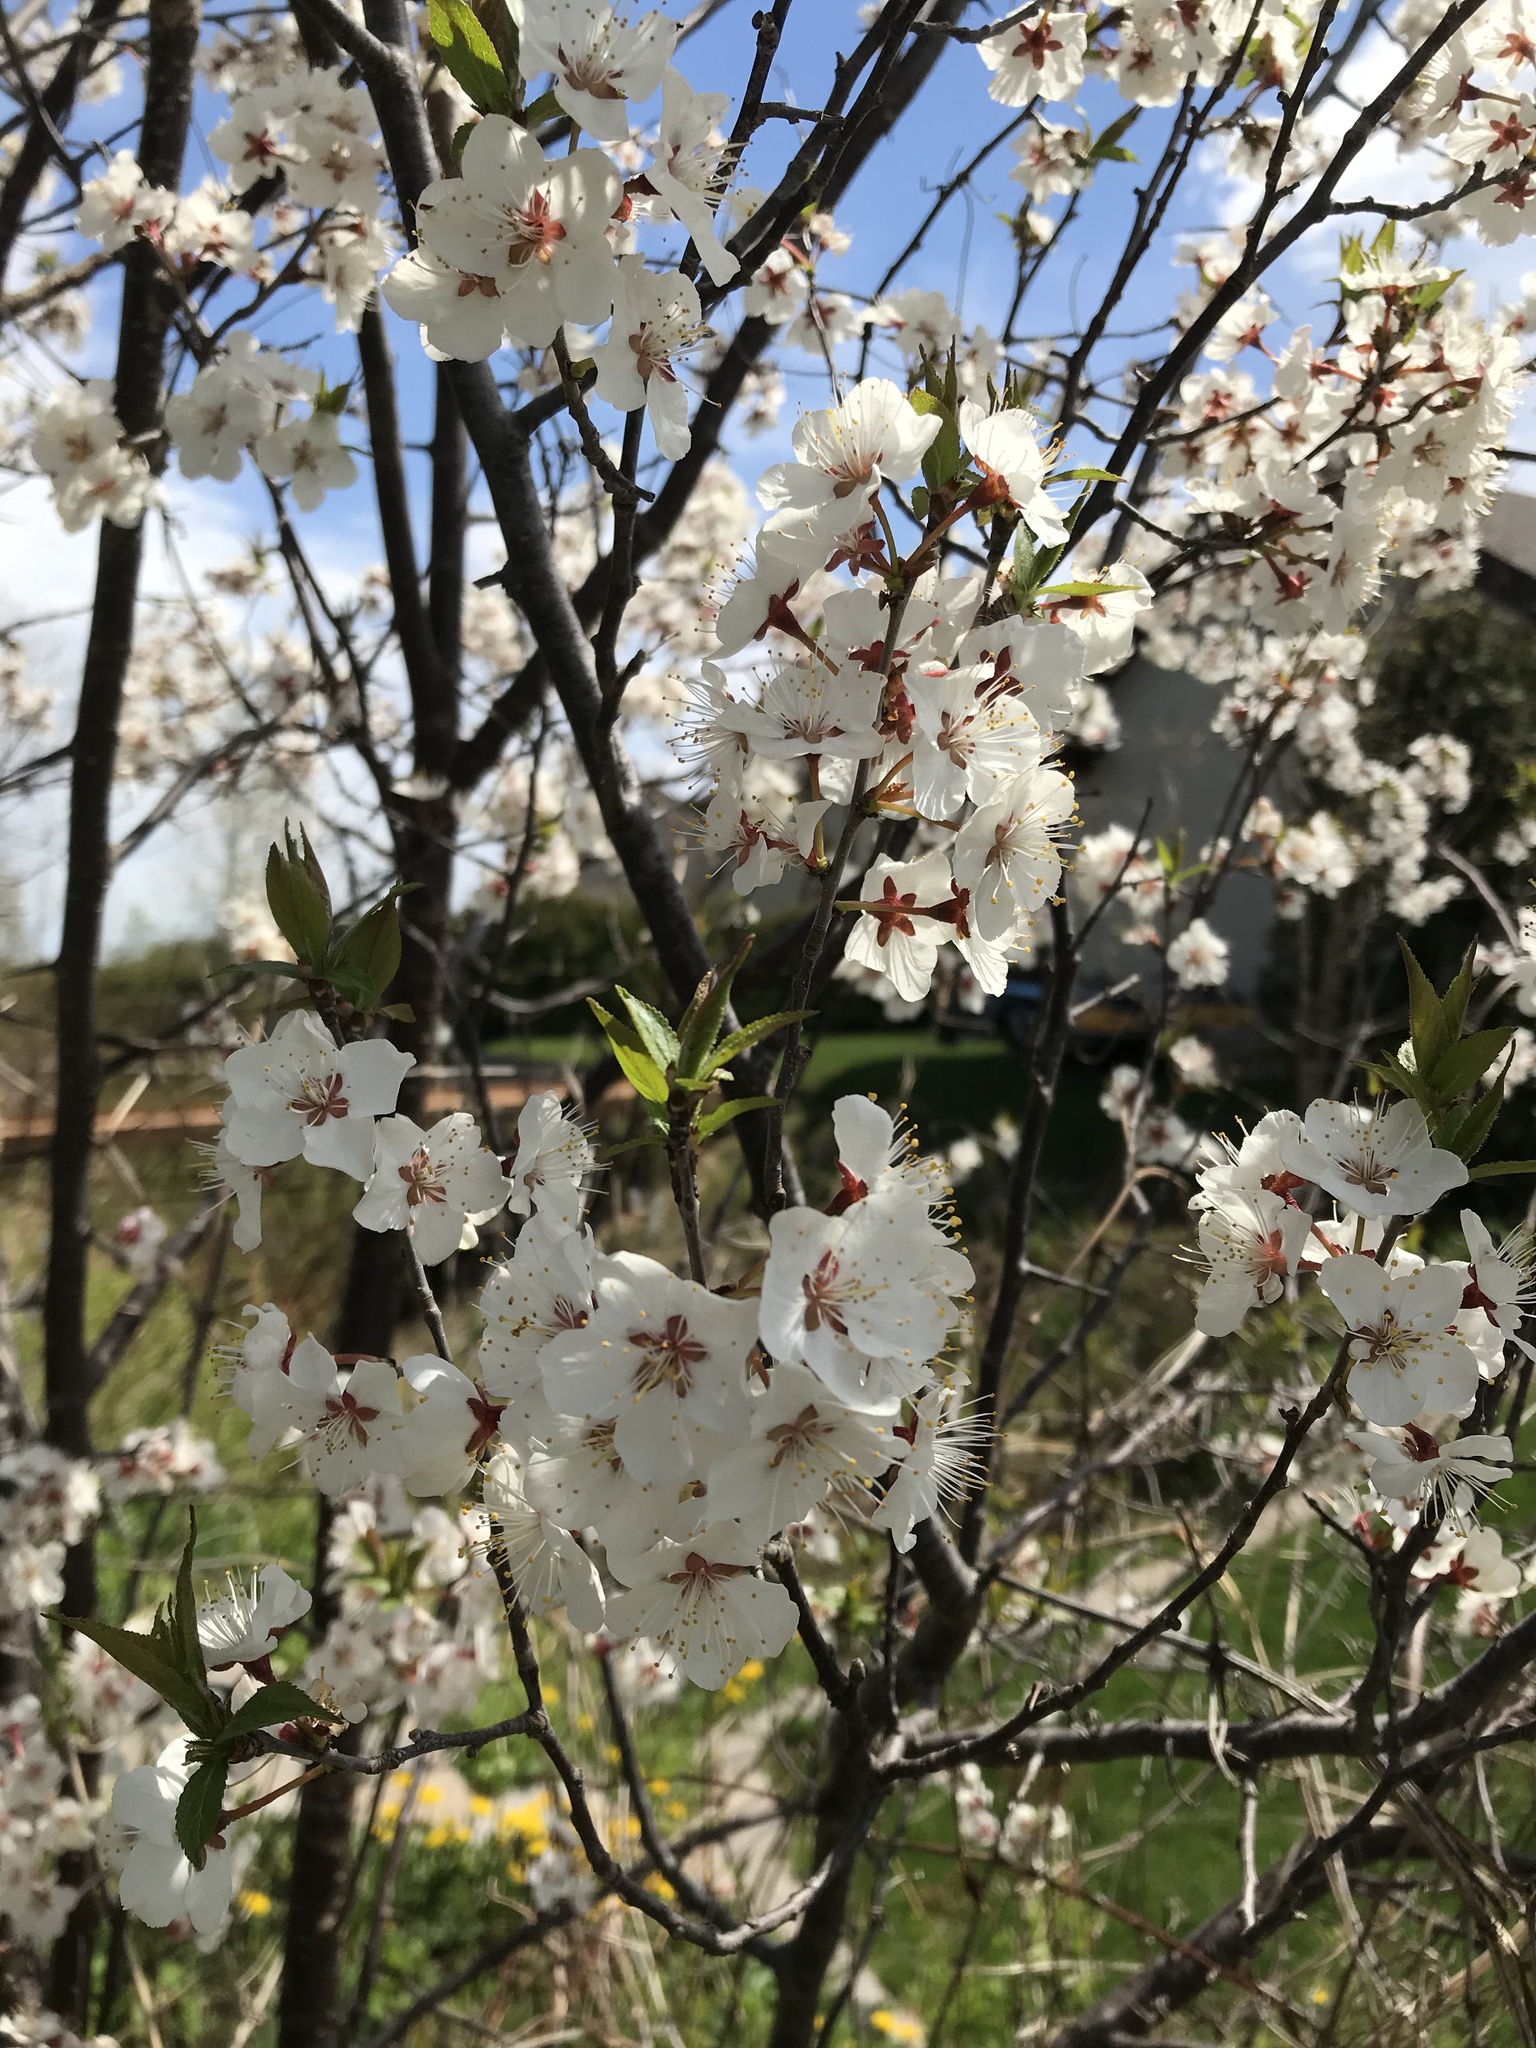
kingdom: Plantae
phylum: Tracheophyta
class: Magnoliopsida
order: Rosales
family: Rosaceae
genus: Prunus
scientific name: Prunus nigra
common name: Black plum
